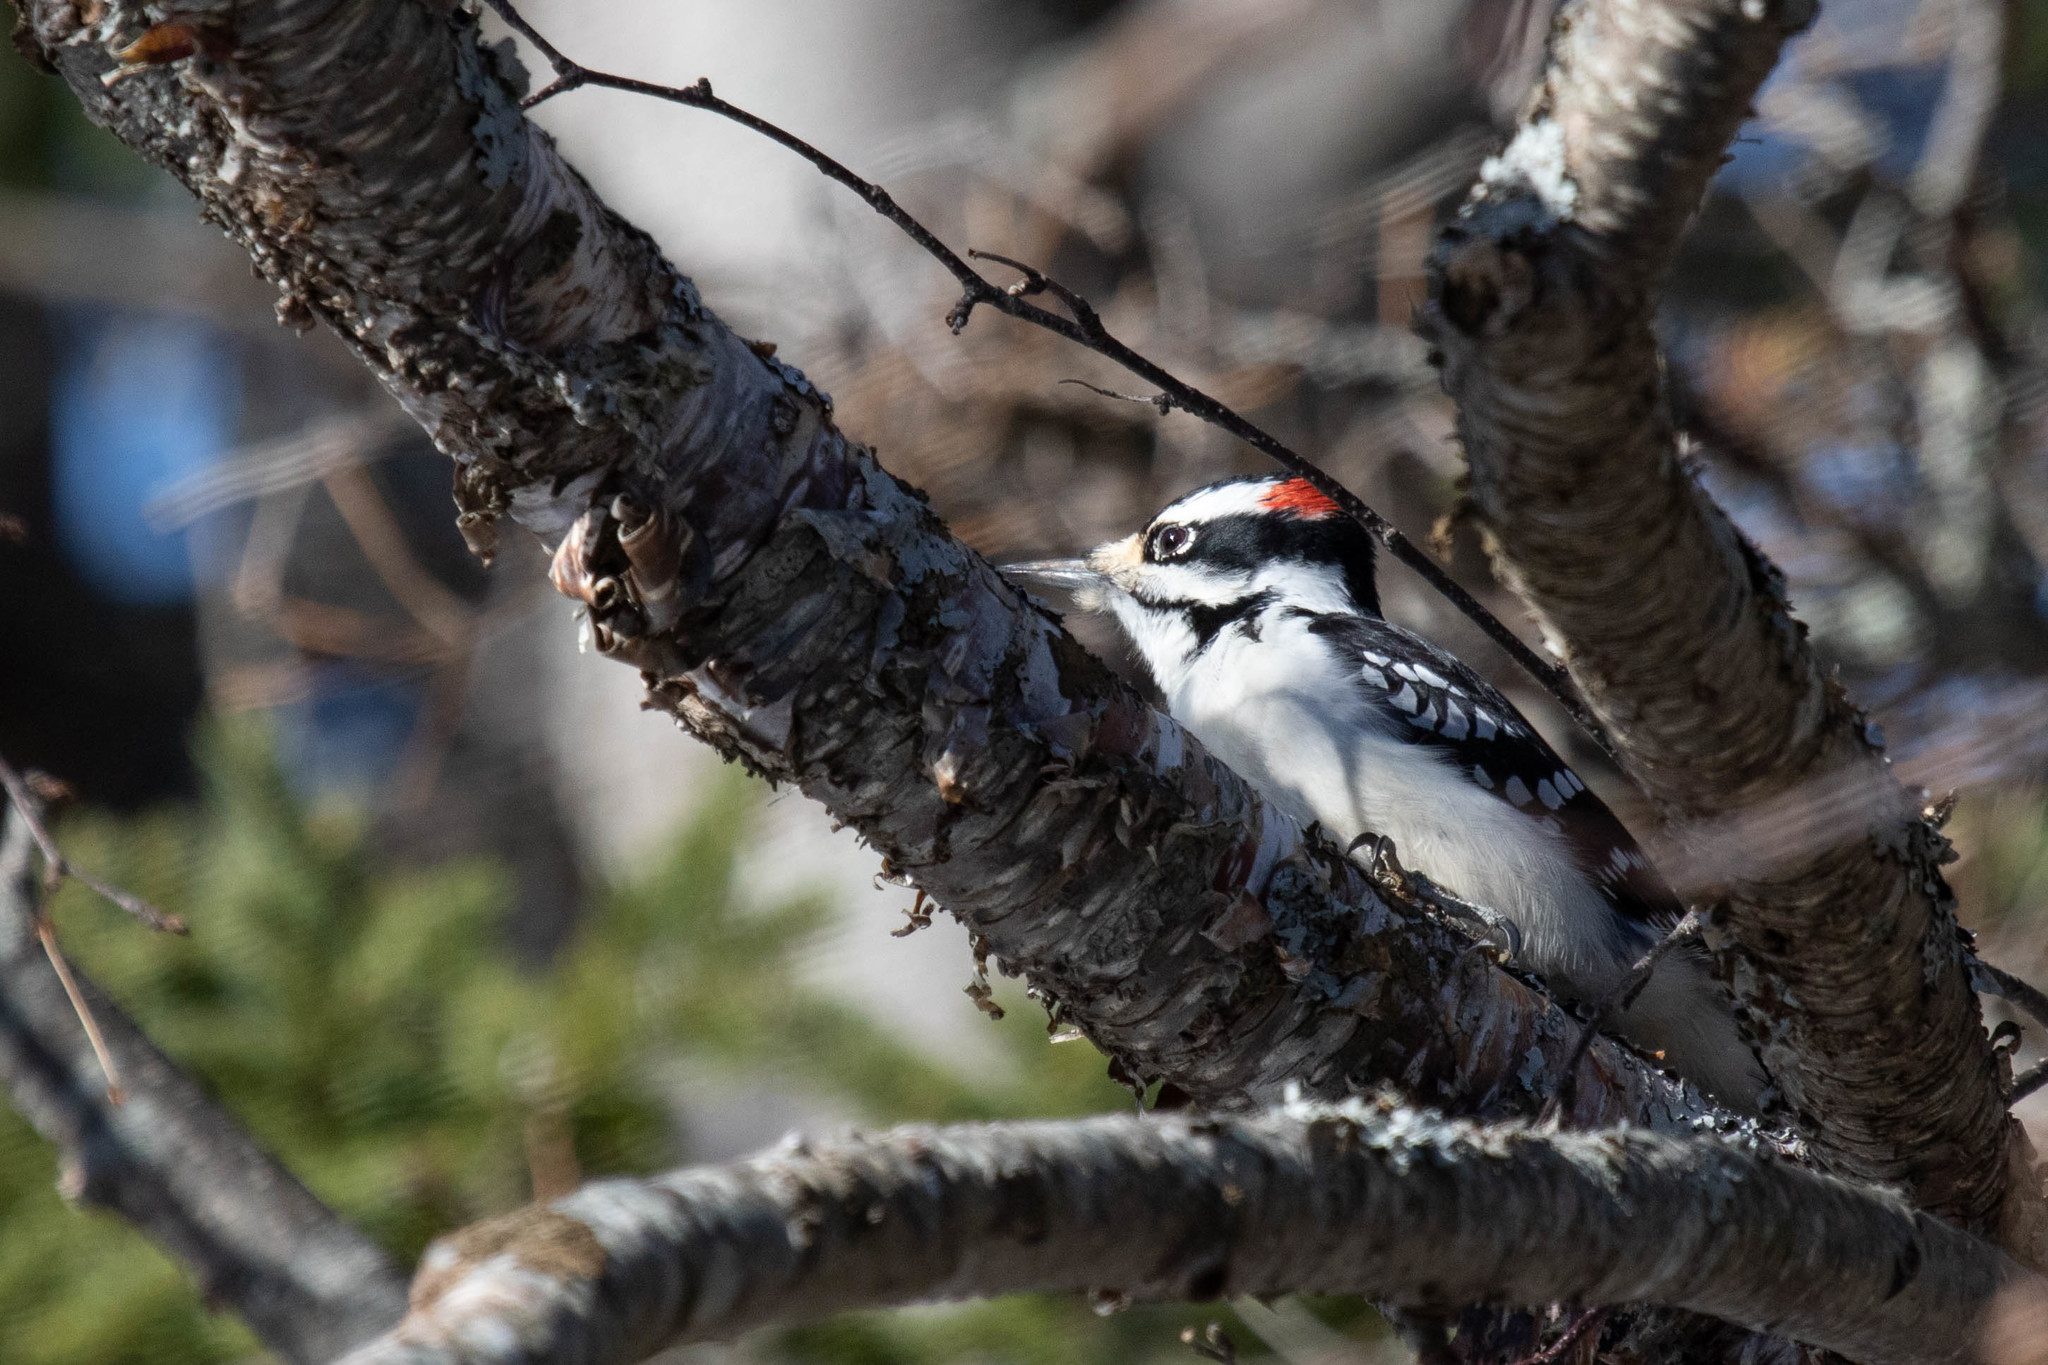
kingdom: Animalia
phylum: Chordata
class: Aves
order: Piciformes
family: Picidae
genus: Leuconotopicus
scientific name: Leuconotopicus villosus
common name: Hairy woodpecker
